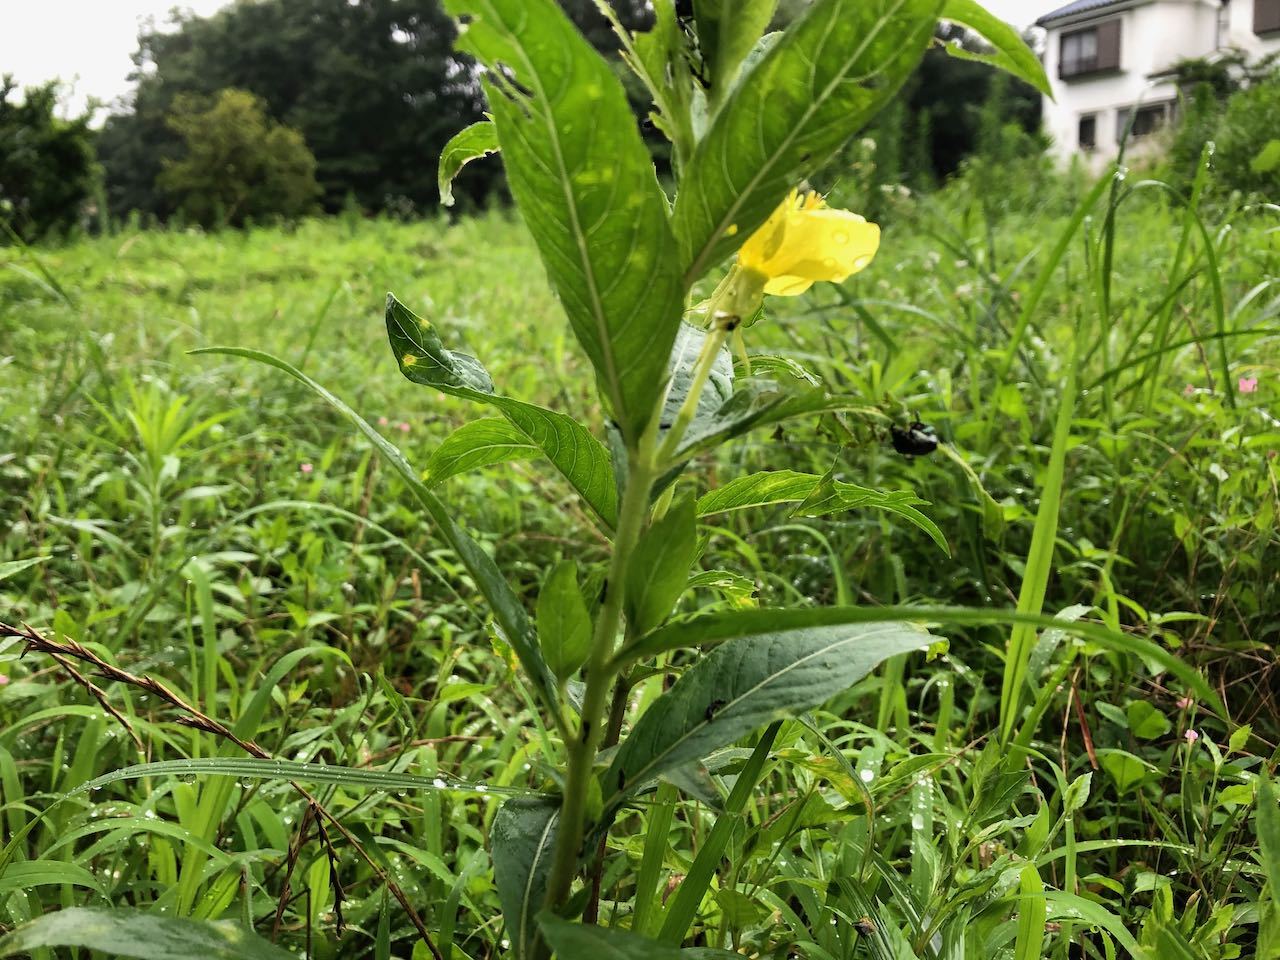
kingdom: Plantae
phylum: Tracheophyta
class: Magnoliopsida
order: Myrtales
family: Onagraceae
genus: Oenothera
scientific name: Oenothera biennis
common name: Common evening-primrose
